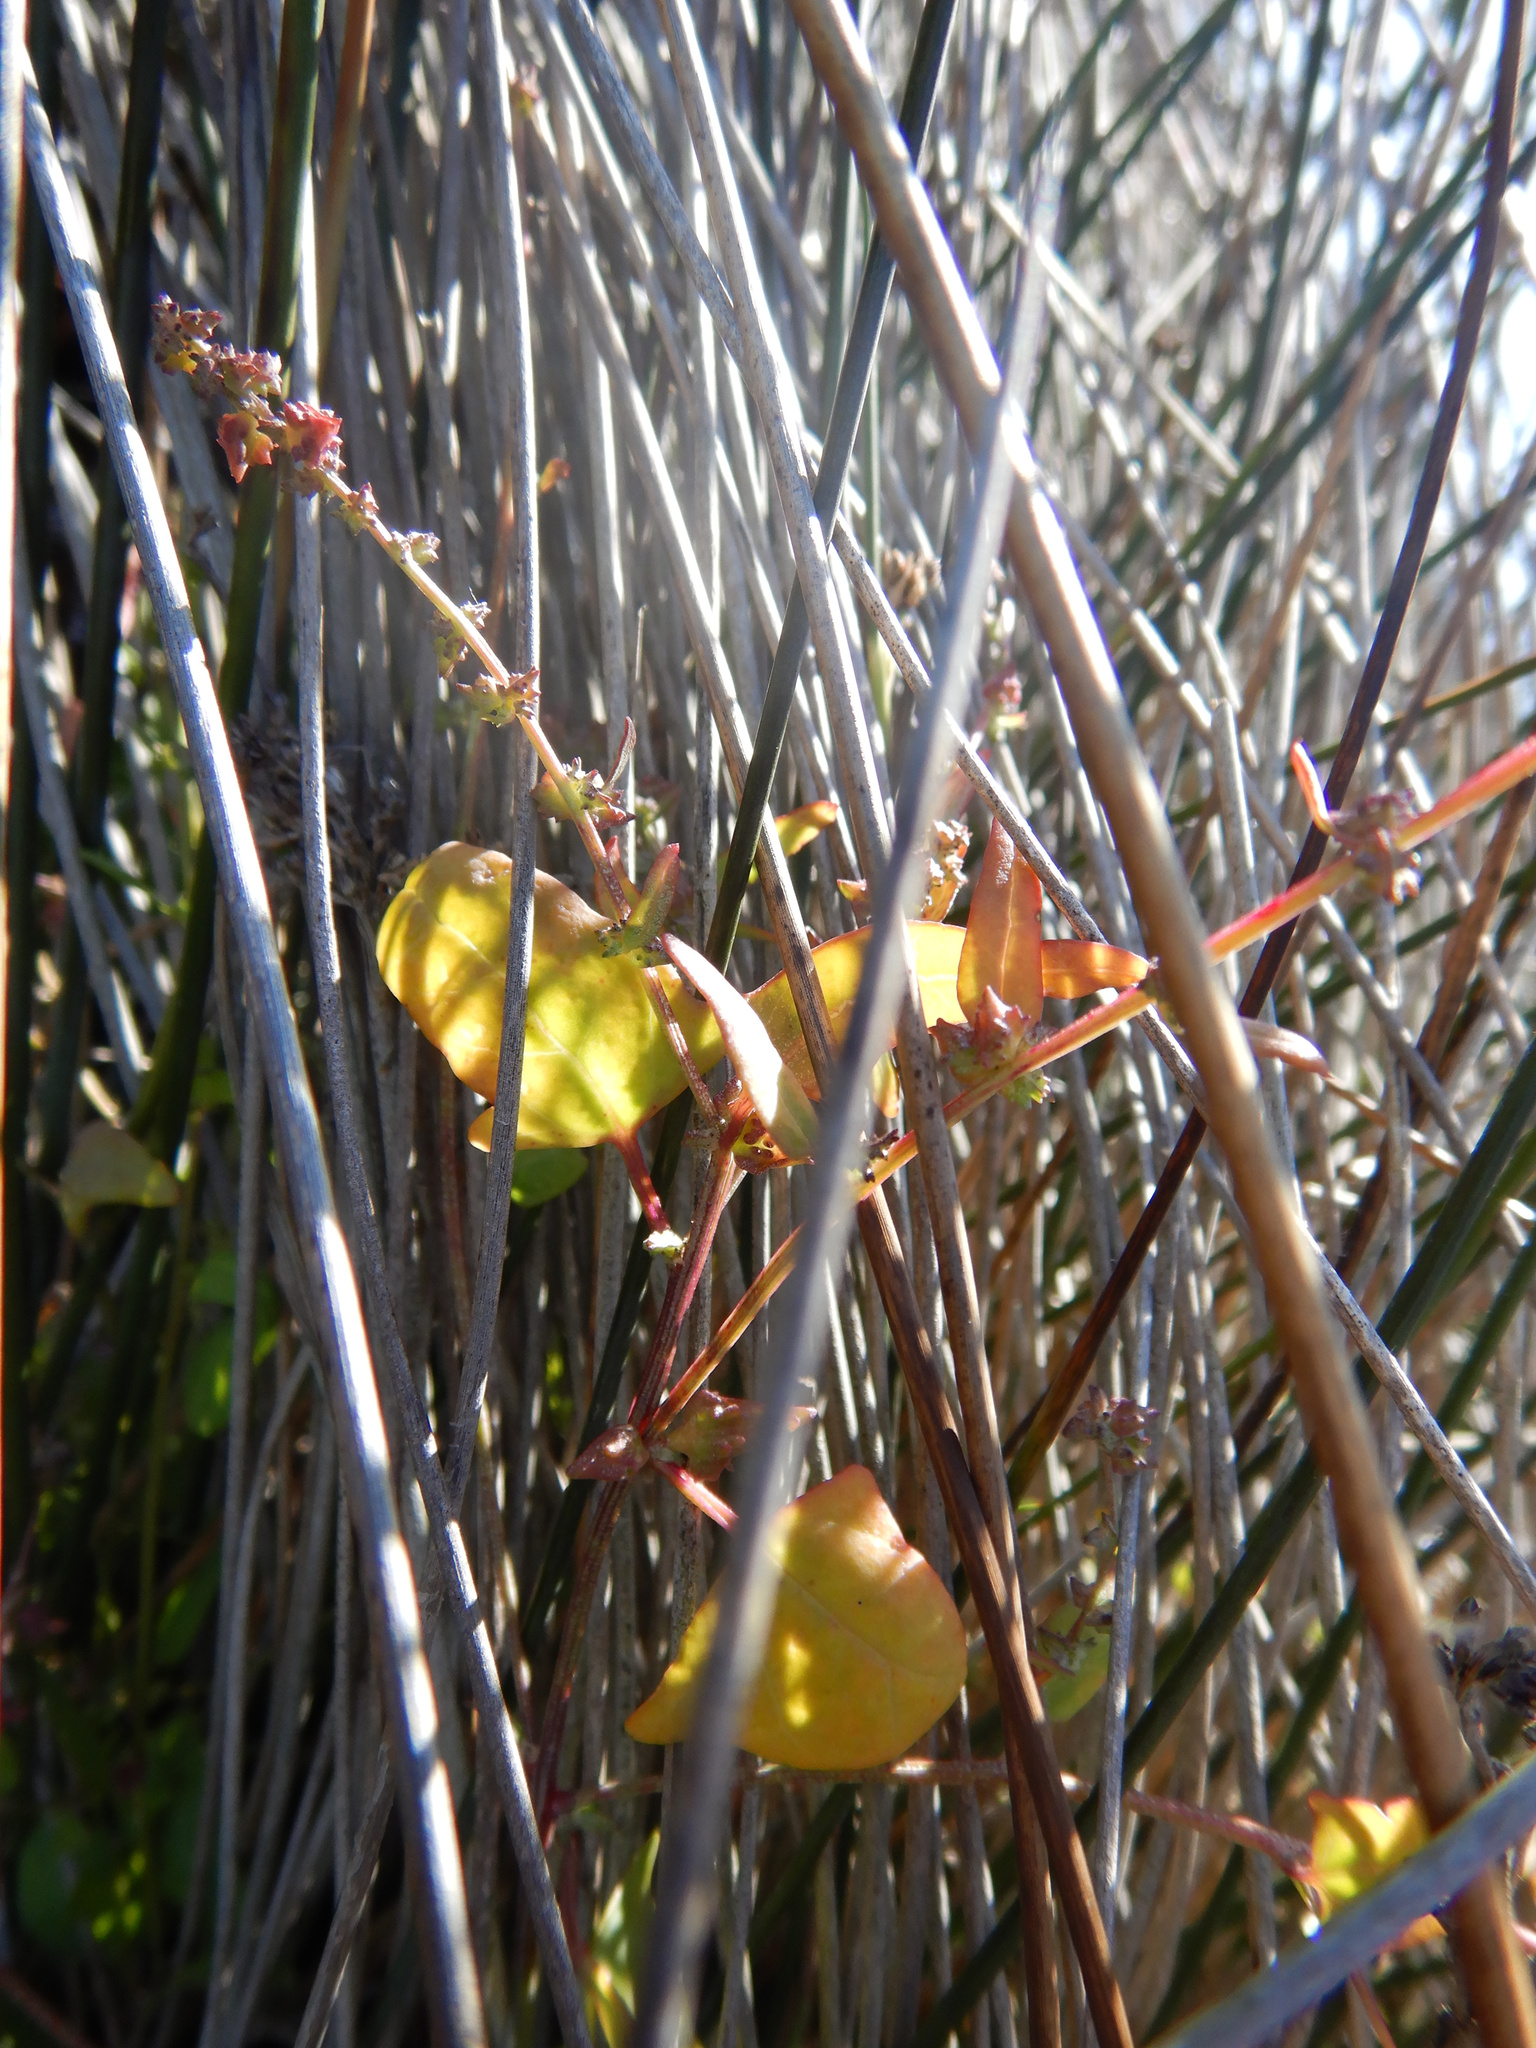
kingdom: Plantae
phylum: Tracheophyta
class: Magnoliopsida
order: Caryophyllales
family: Amaranthaceae
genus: Atriplex
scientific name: Atriplex prostrata
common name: Spear-leaved orache
